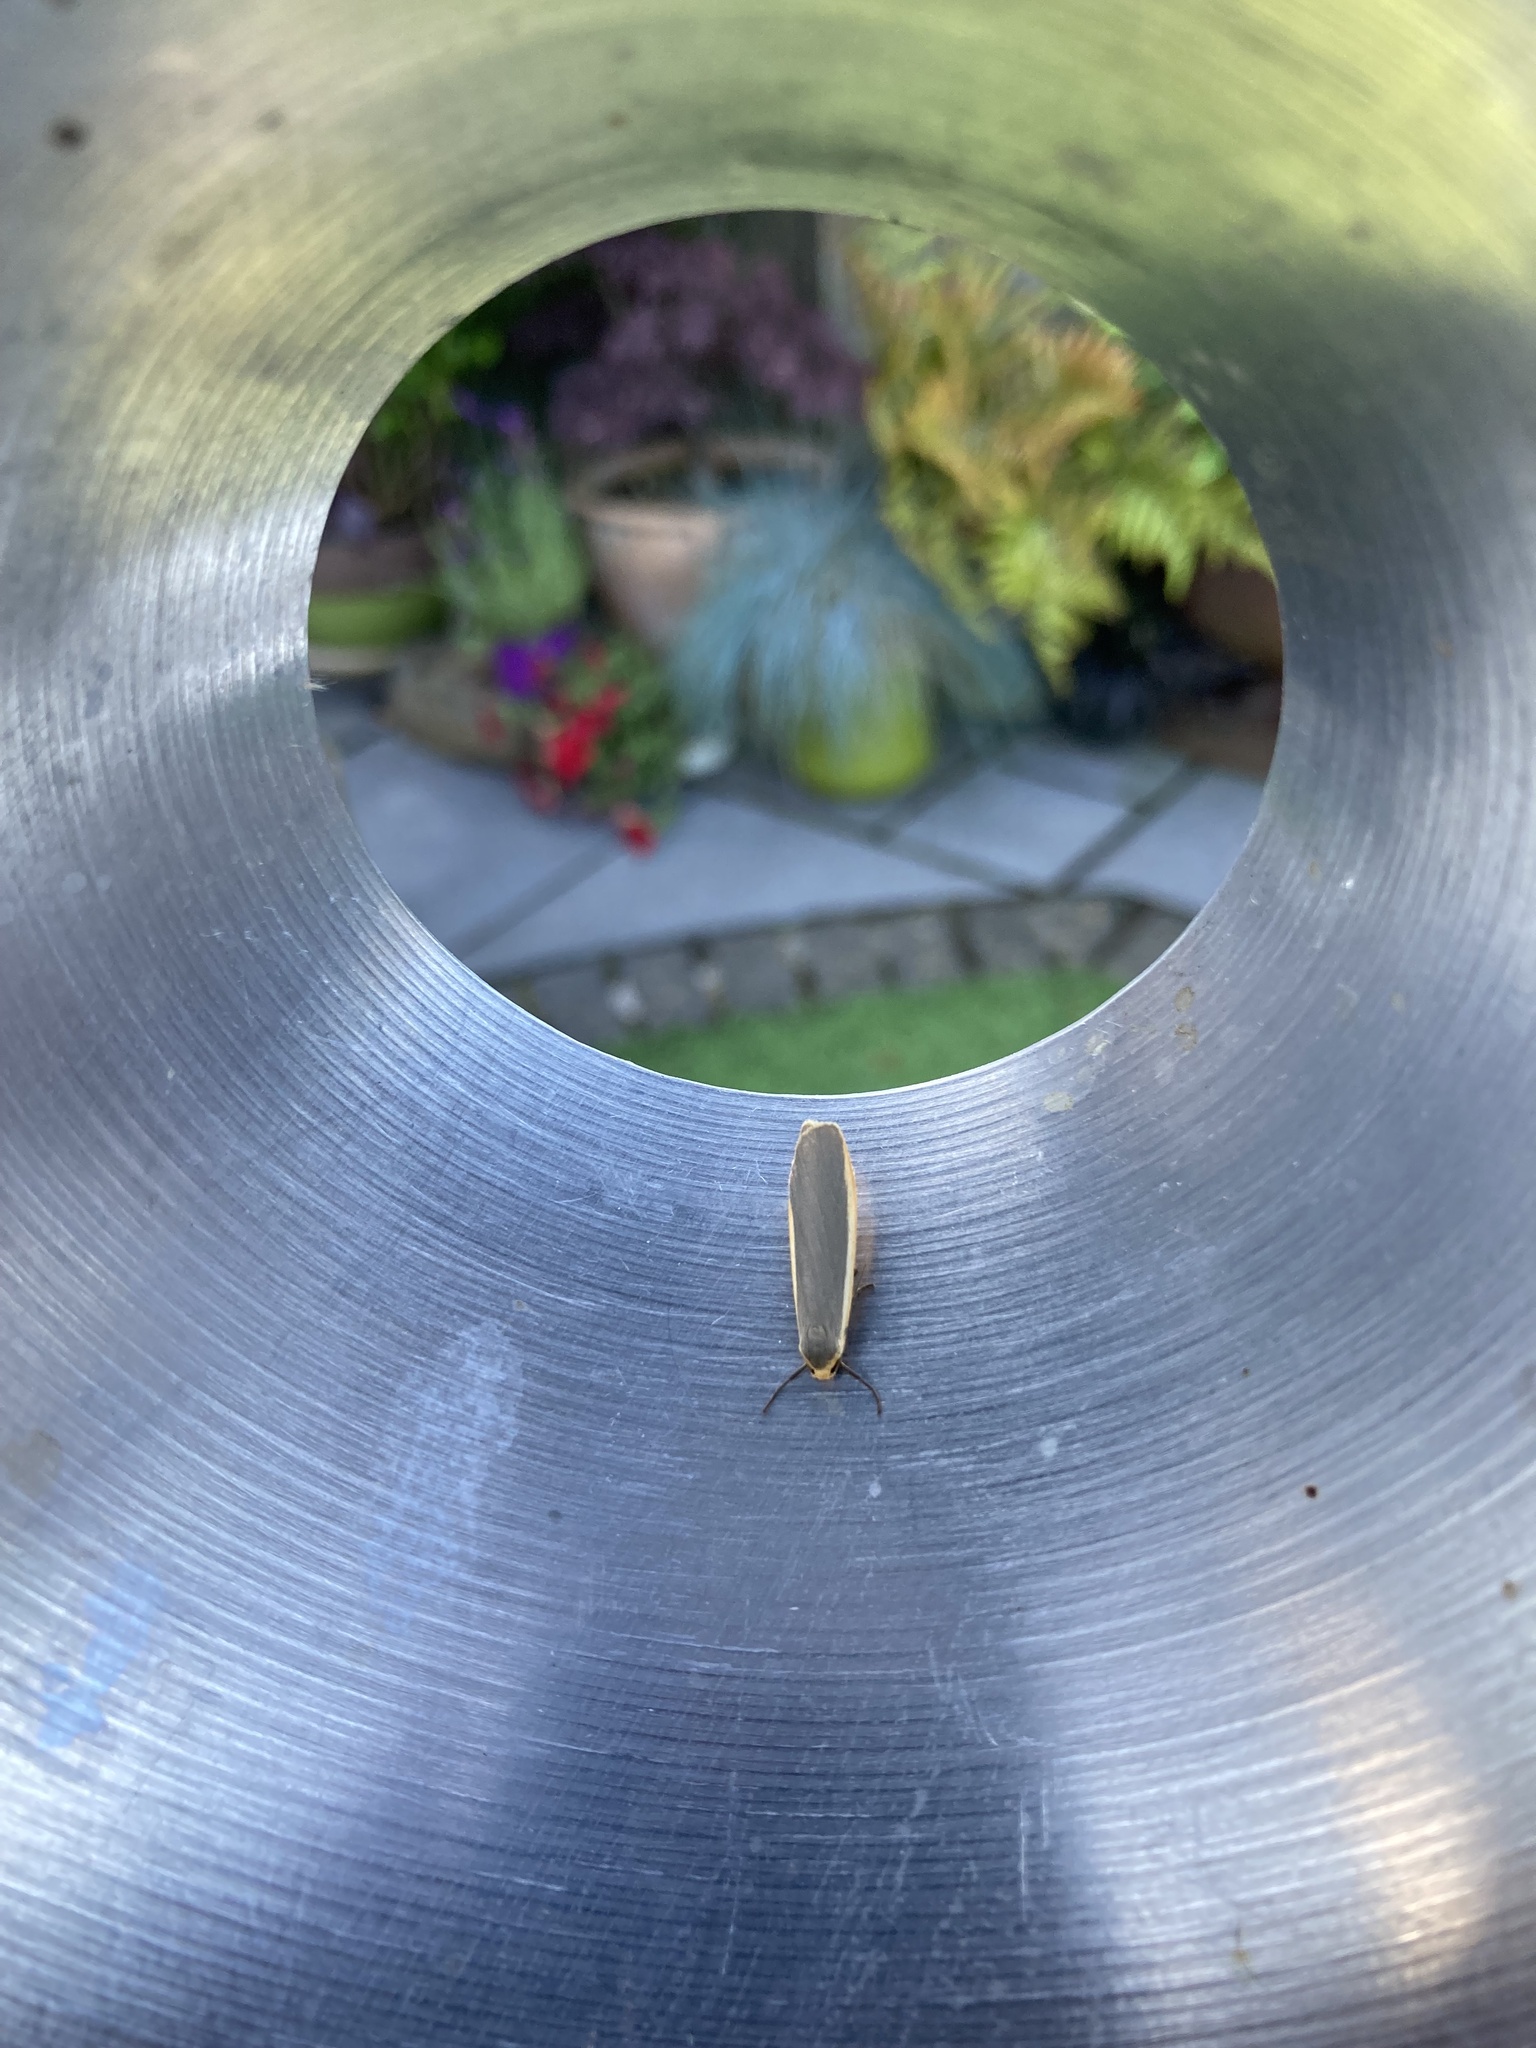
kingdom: Animalia
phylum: Arthropoda
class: Insecta
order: Lepidoptera
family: Erebidae
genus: Nyea
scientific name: Nyea lurideola
